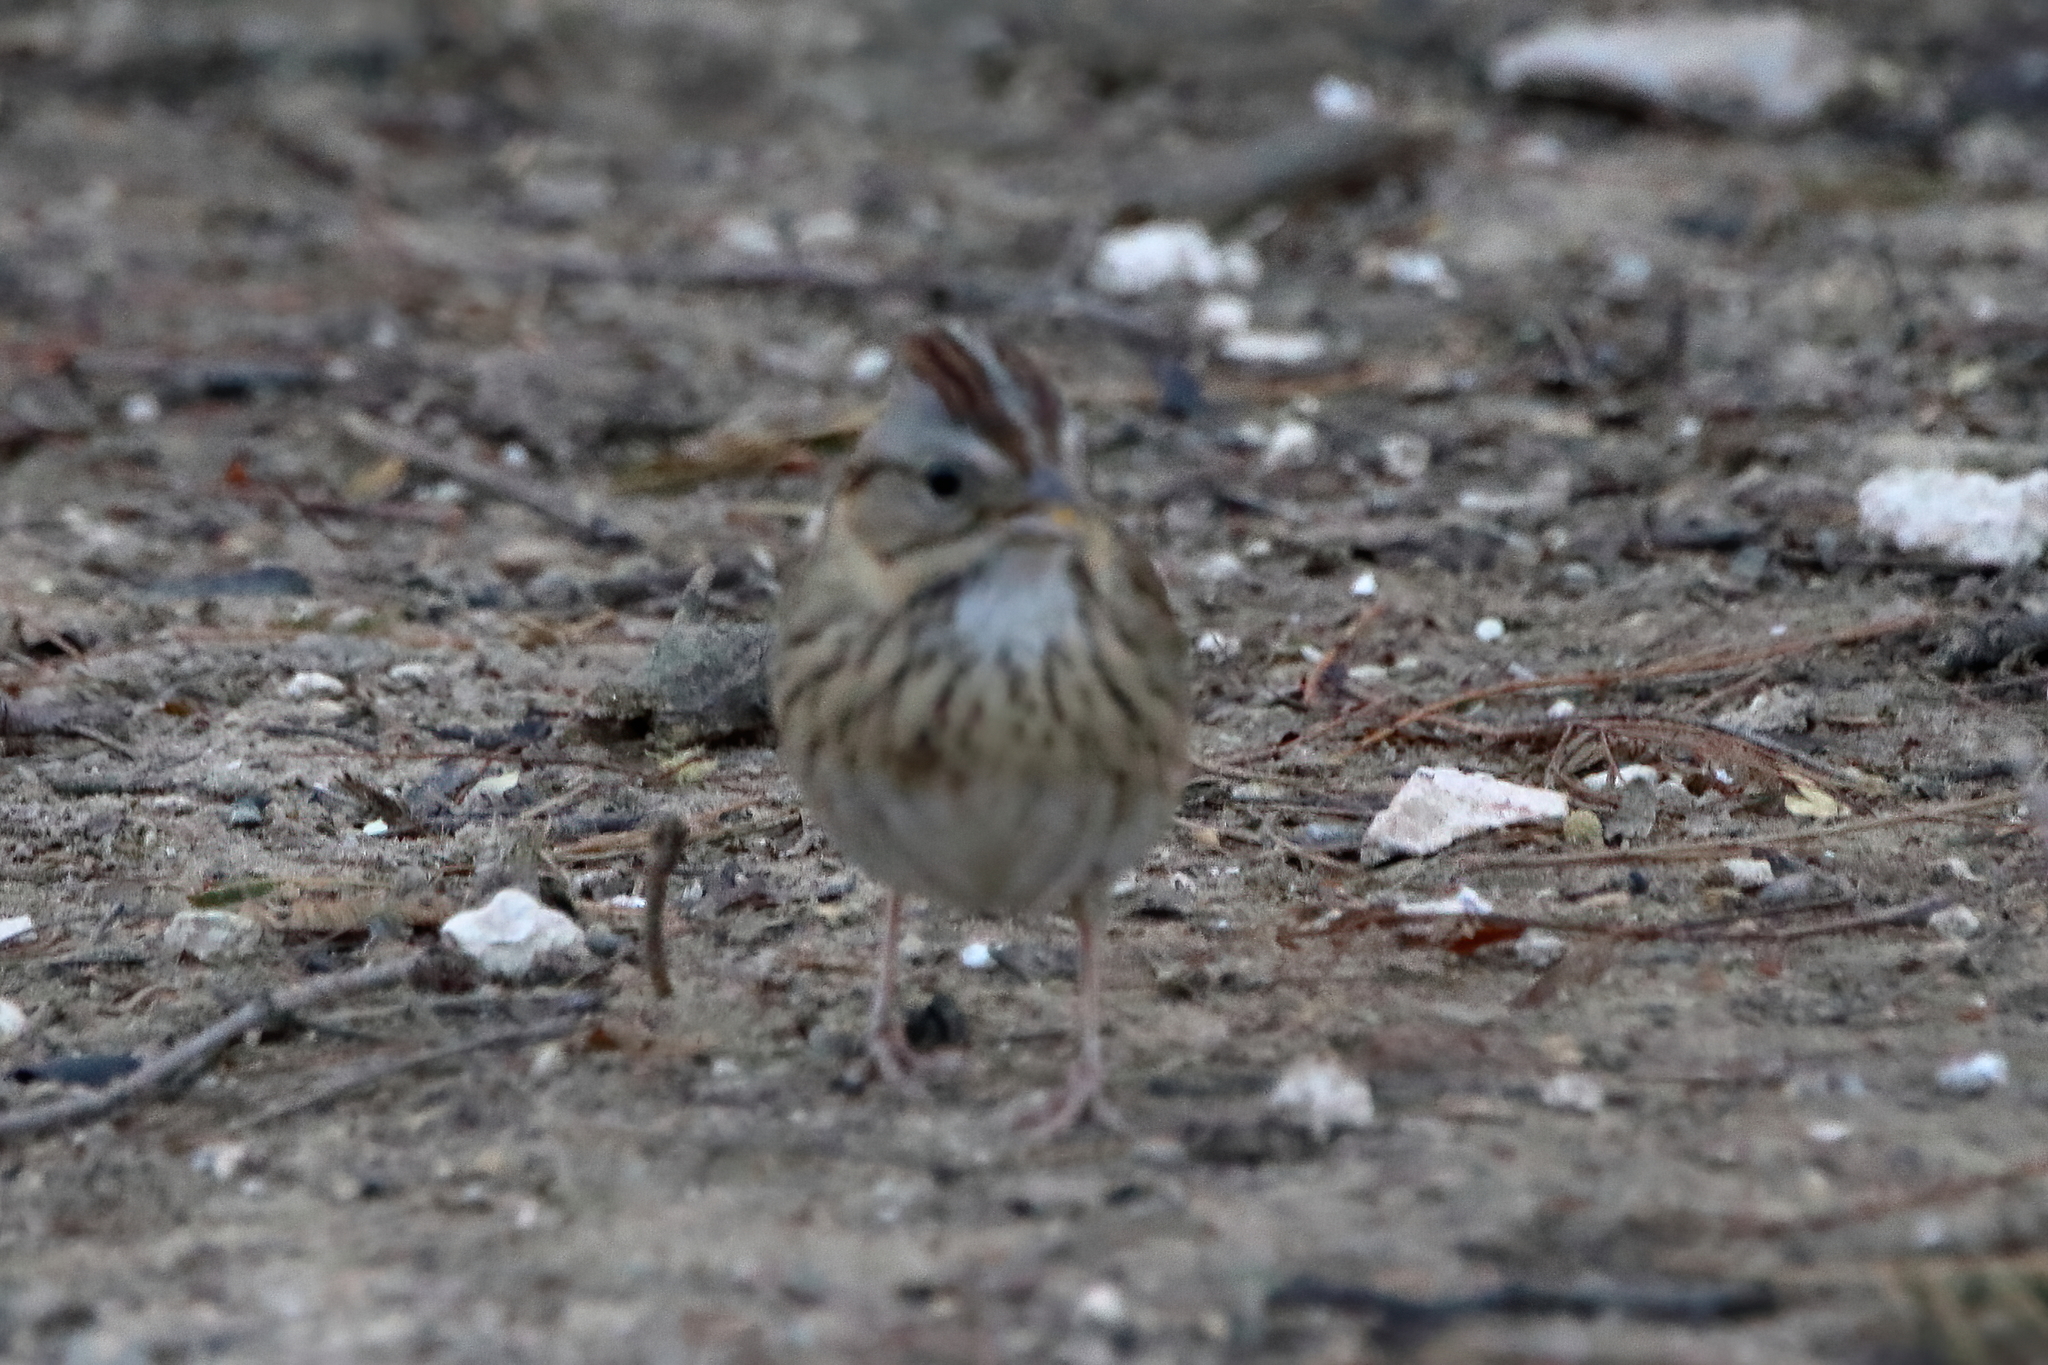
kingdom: Animalia
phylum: Chordata
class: Aves
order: Passeriformes
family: Passerellidae
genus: Melospiza
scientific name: Melospiza lincolnii
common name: Lincoln's sparrow
